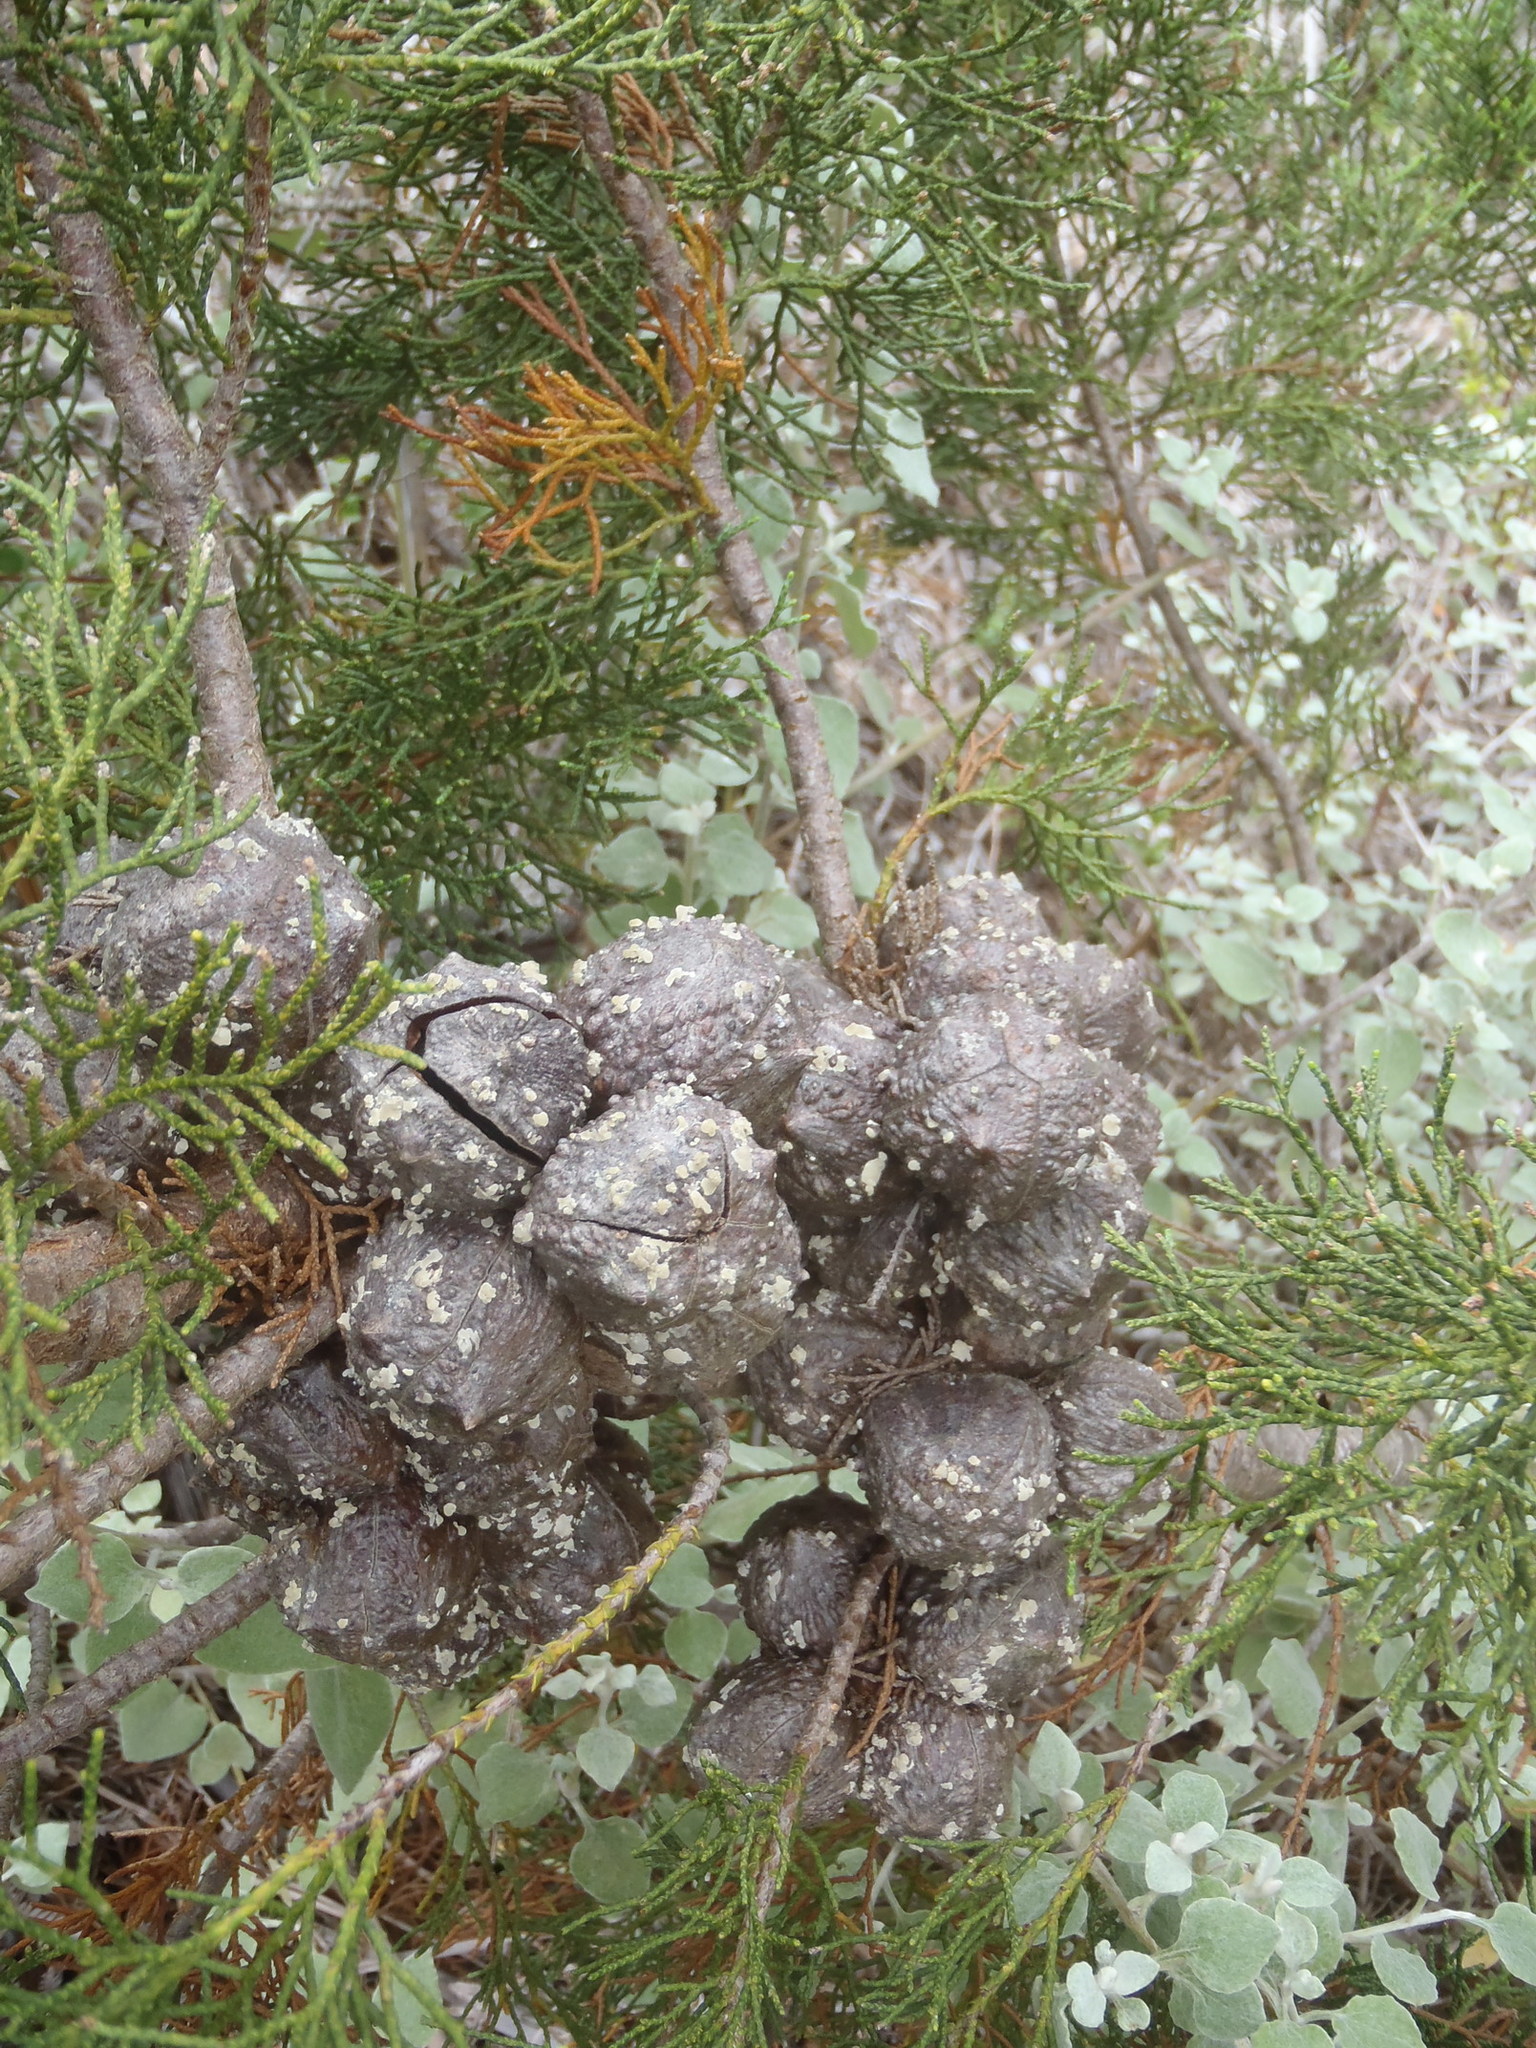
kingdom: Plantae
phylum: Tracheophyta
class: Pinopsida
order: Pinales
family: Cupressaceae
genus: Widdringtonia
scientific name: Widdringtonia nodiflora
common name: Cape cypress
